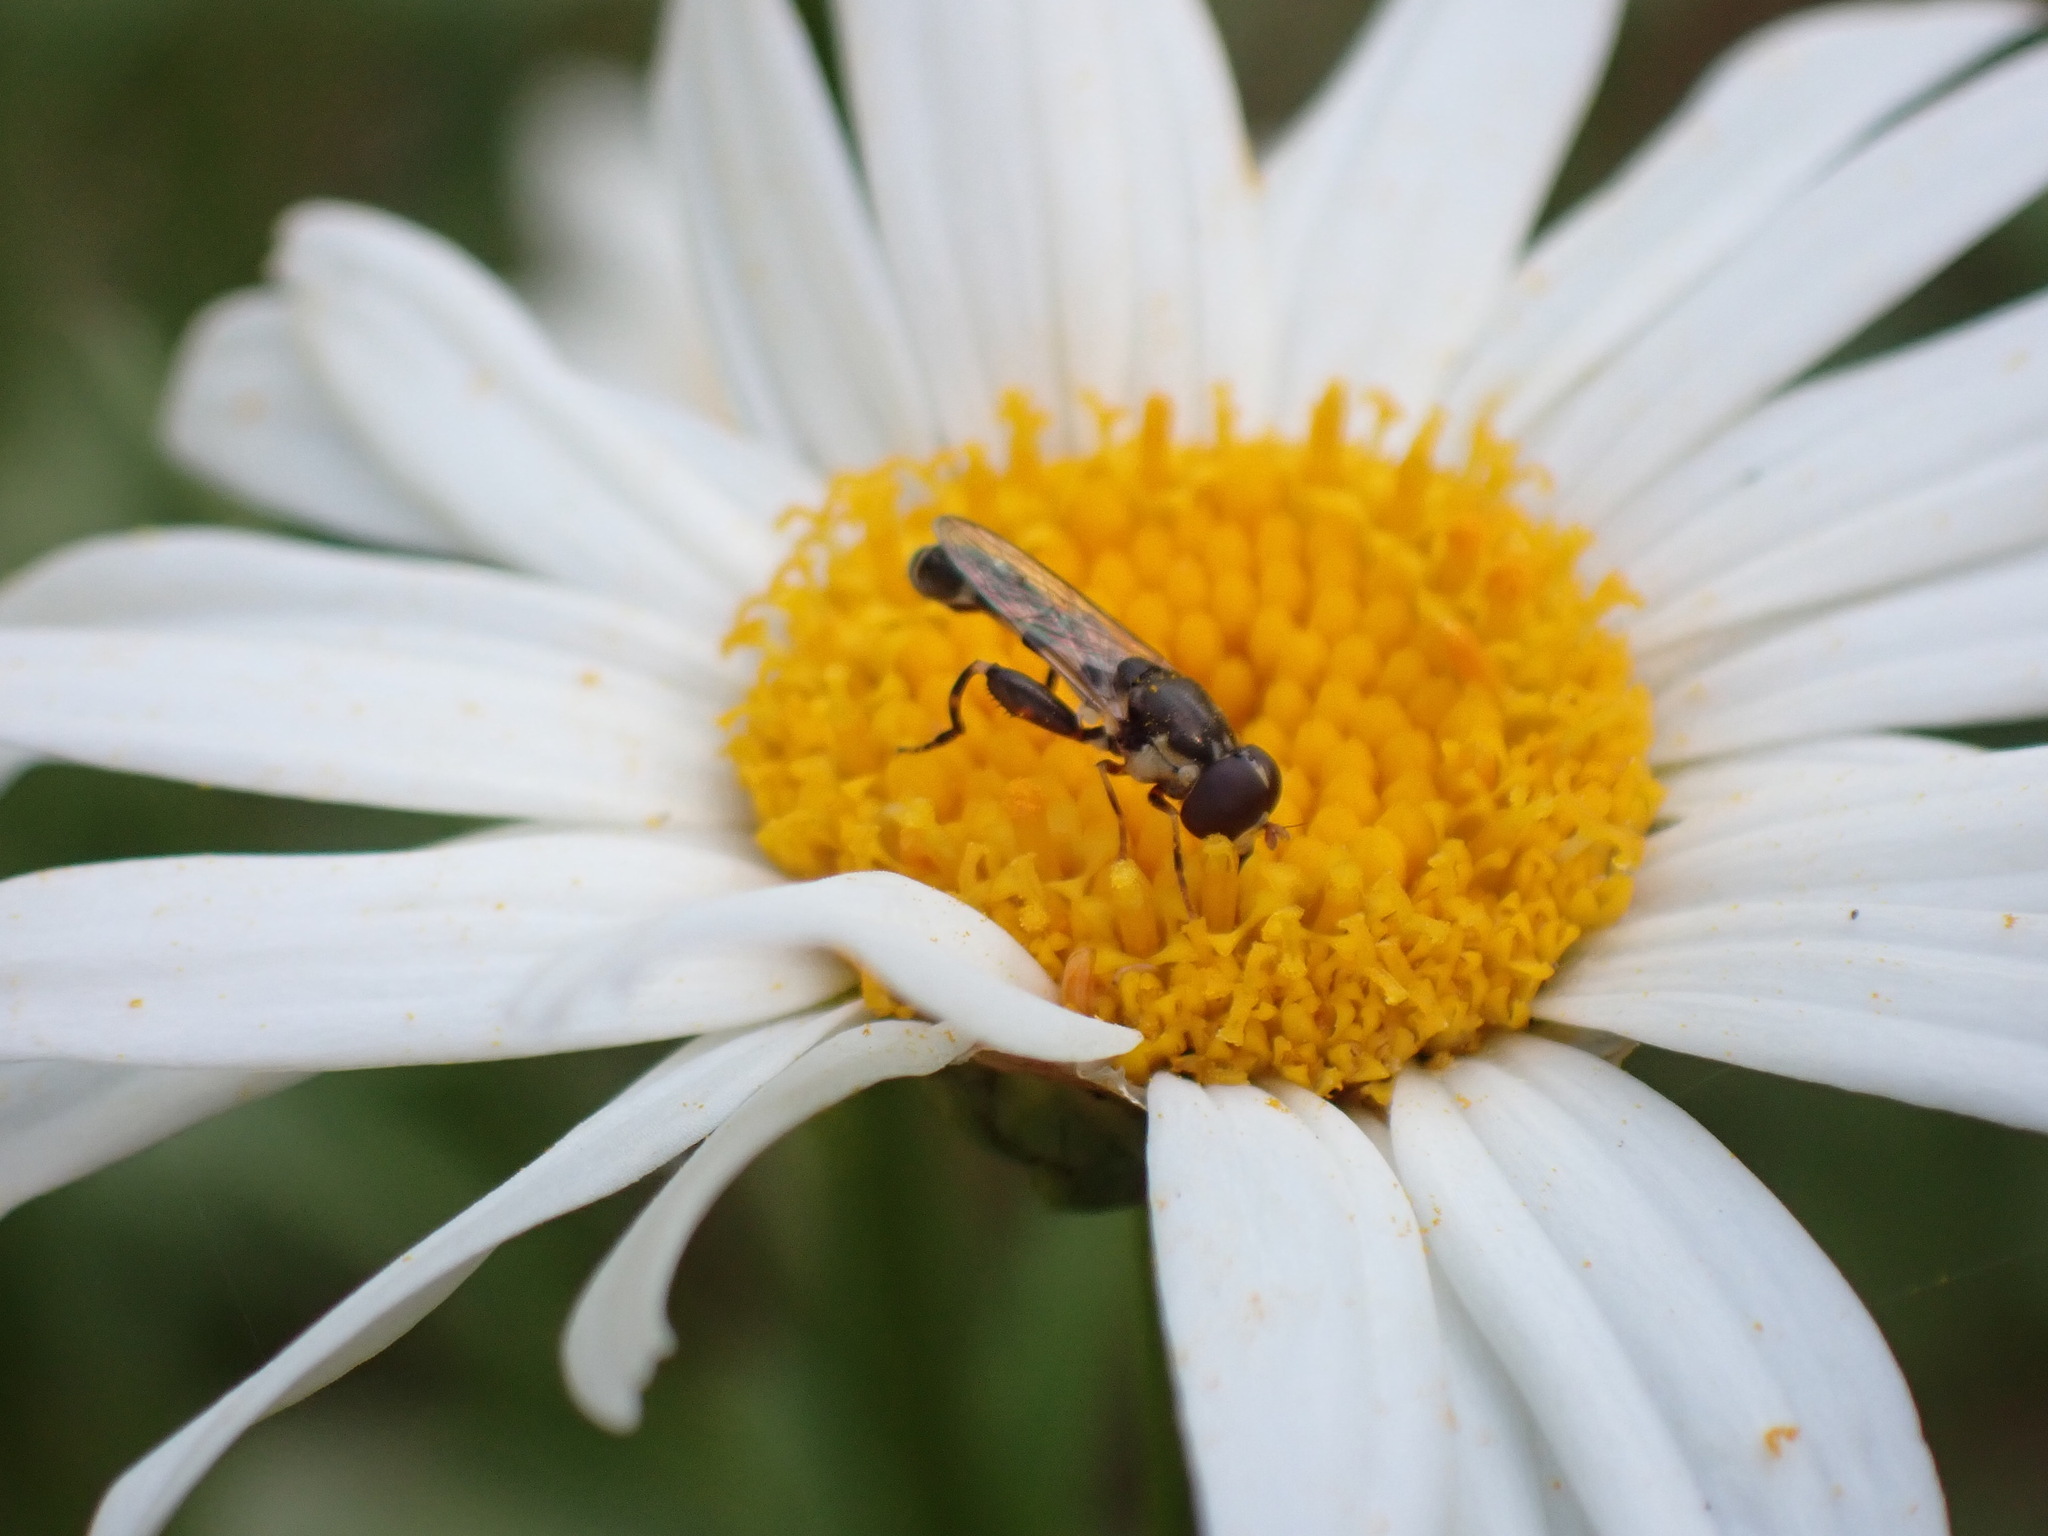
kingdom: Animalia
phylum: Arthropoda
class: Insecta
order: Diptera
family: Syrphidae
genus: Syritta
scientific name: Syritta pipiens
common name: Hover fly
